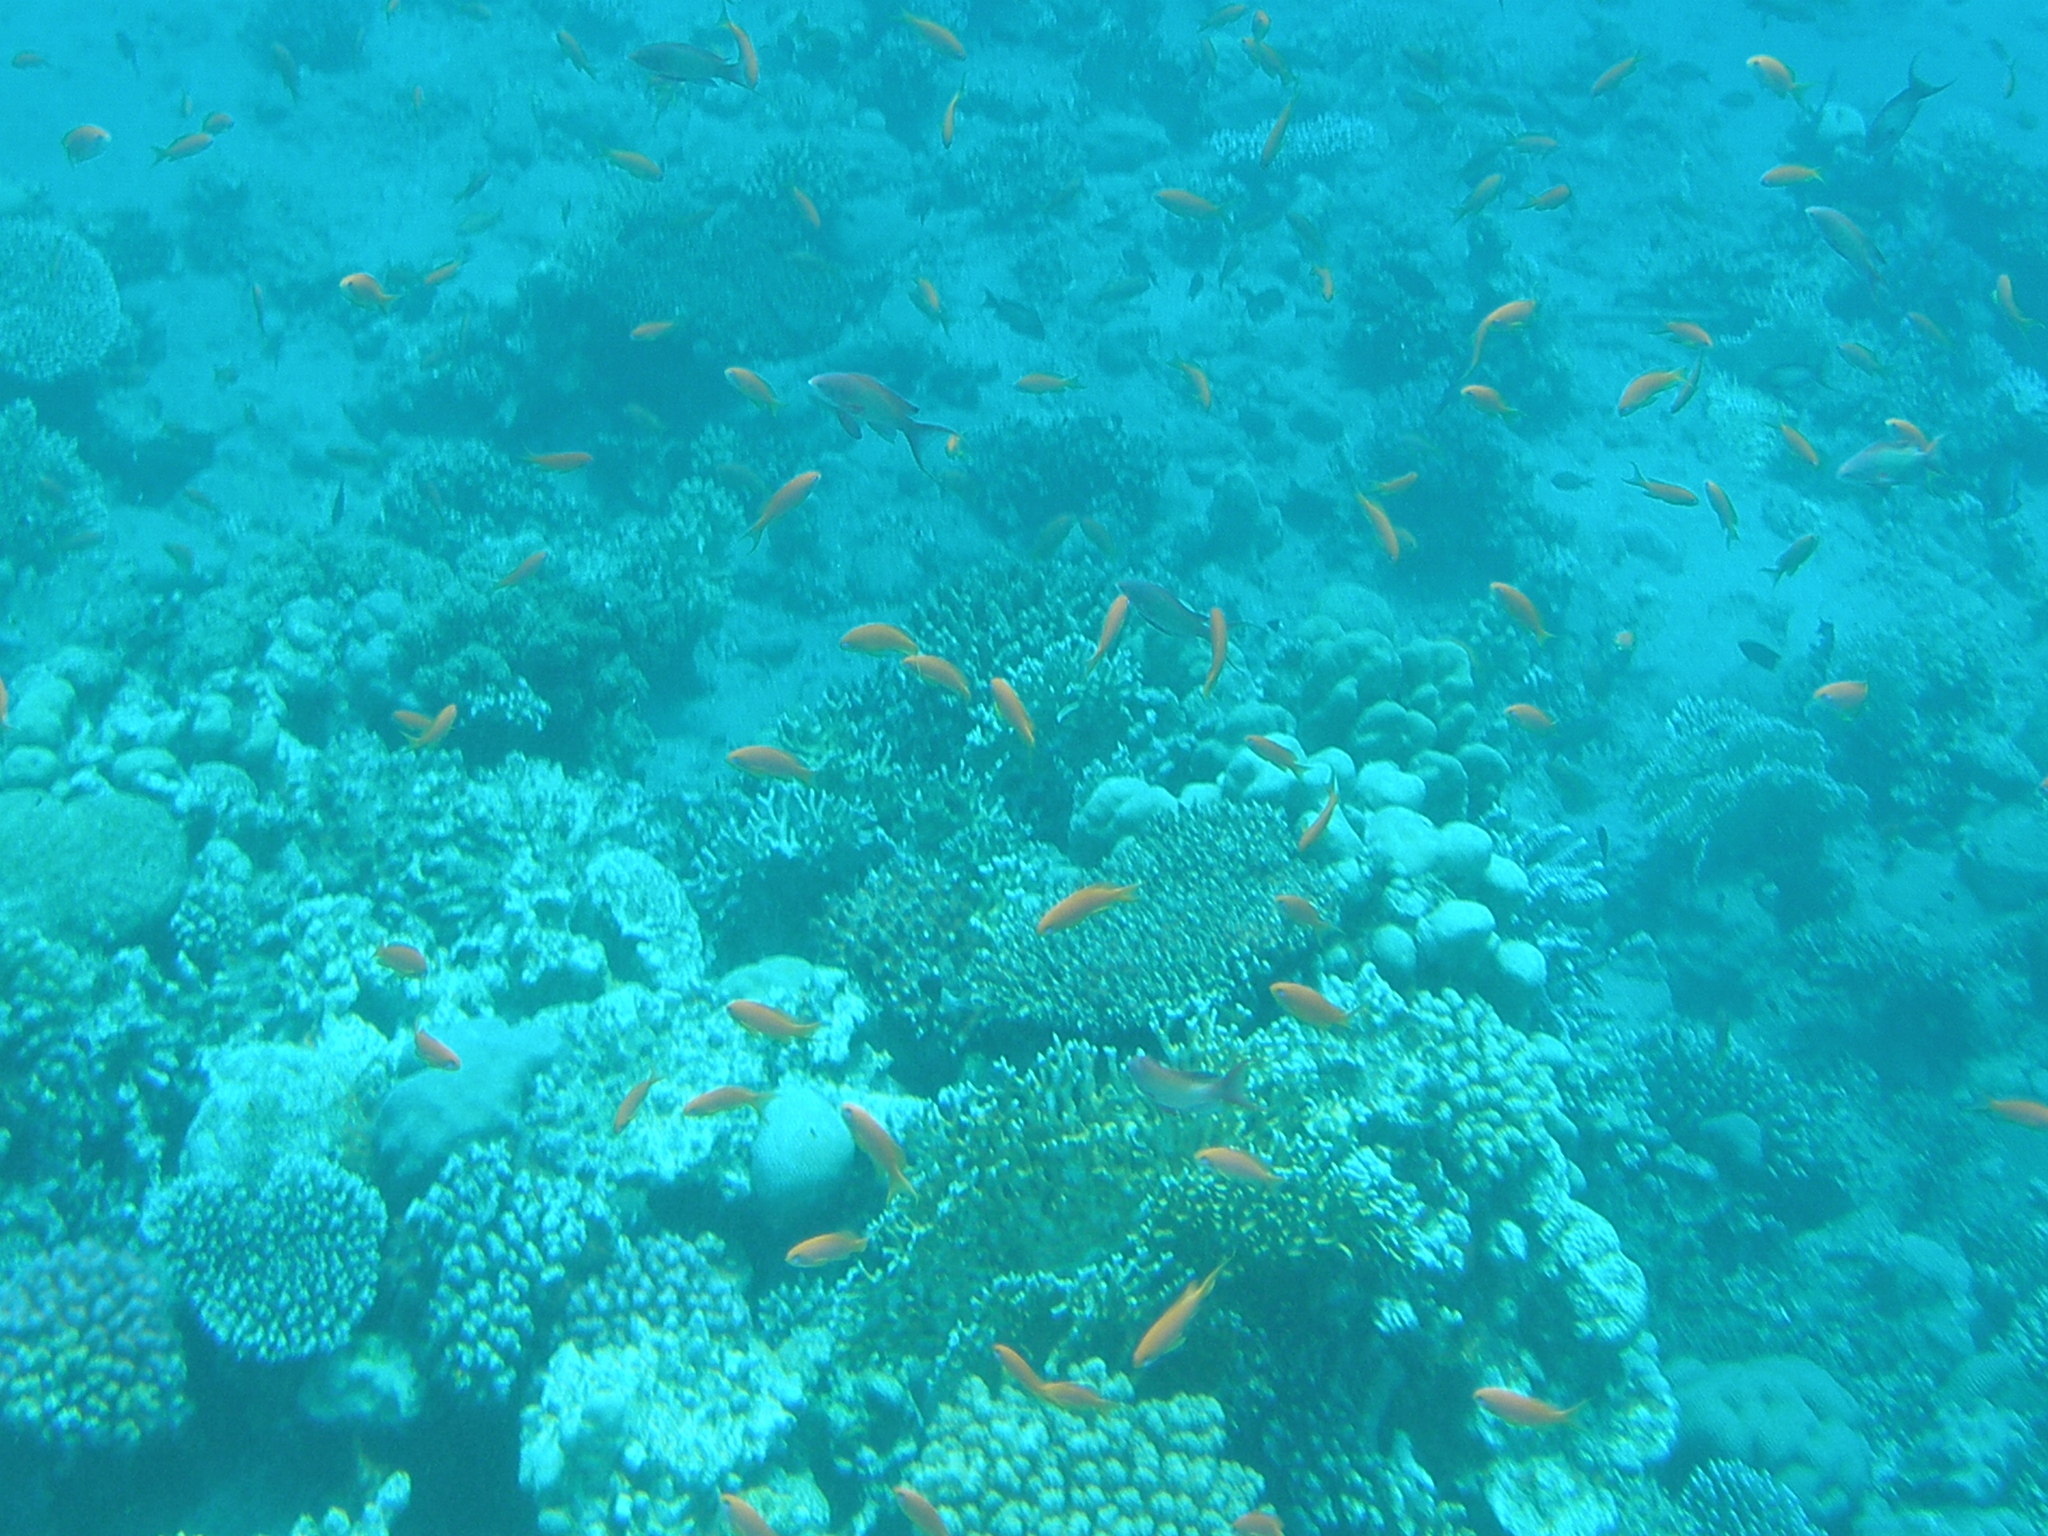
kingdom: Animalia
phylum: Chordata
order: Perciformes
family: Serranidae
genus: Pseudanthias
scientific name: Pseudanthias squamipinnis
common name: Scalefin anthias
